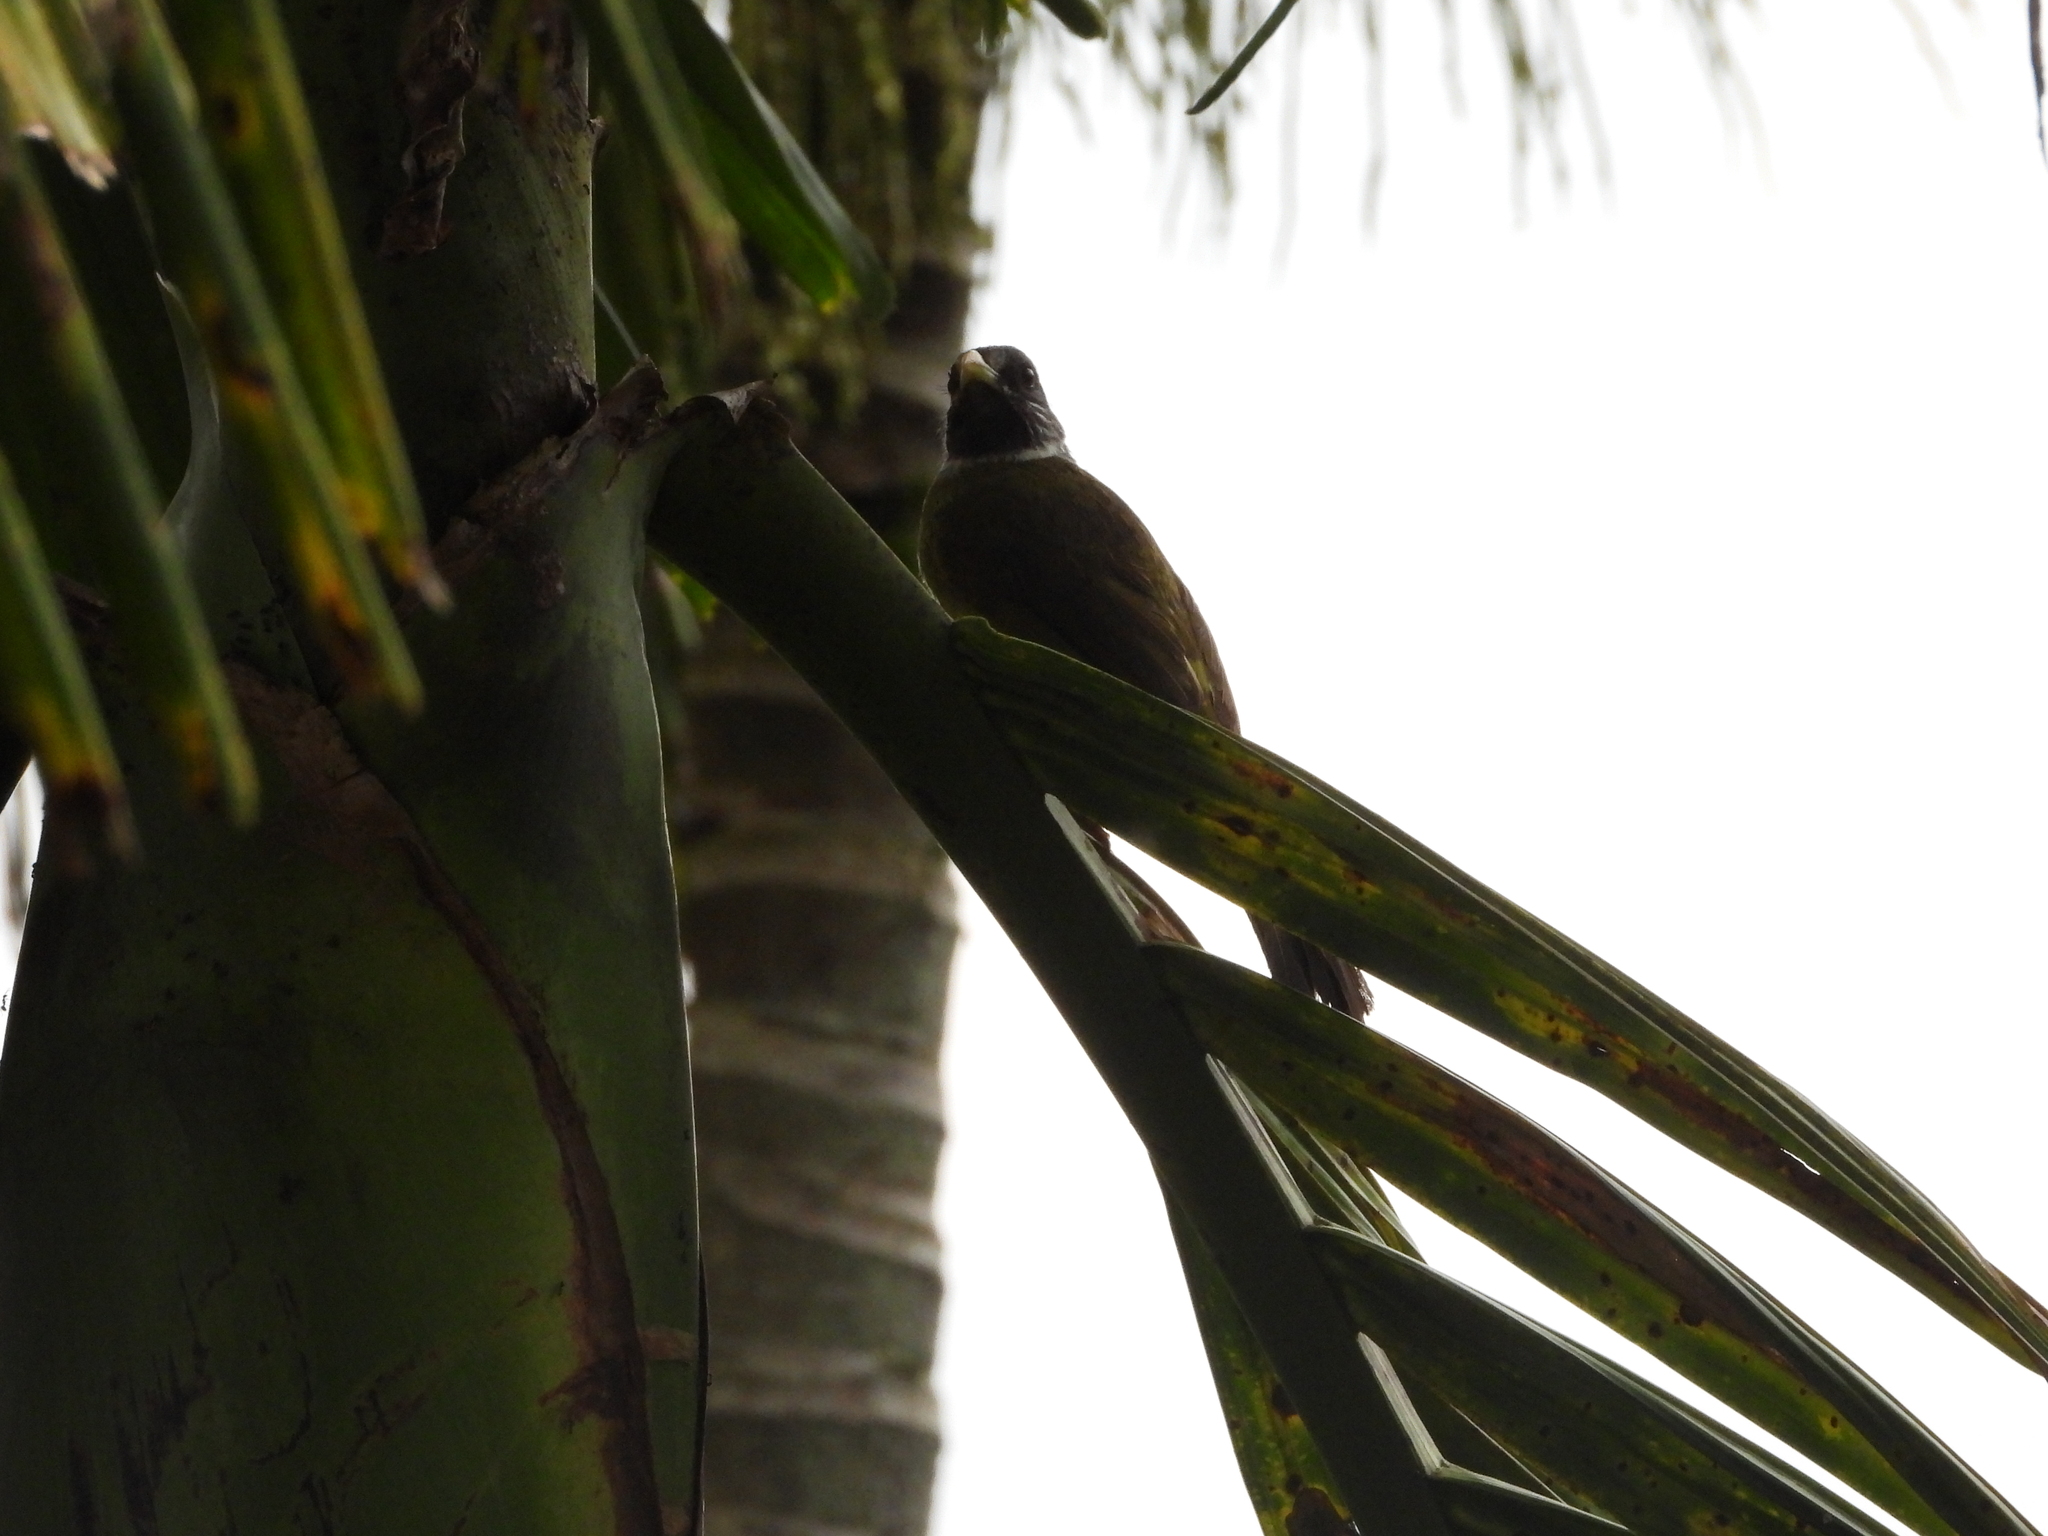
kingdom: Animalia
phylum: Chordata
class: Aves
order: Passeriformes
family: Pycnonotidae
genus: Spizixos
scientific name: Spizixos semitorques
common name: Collared finchbill
